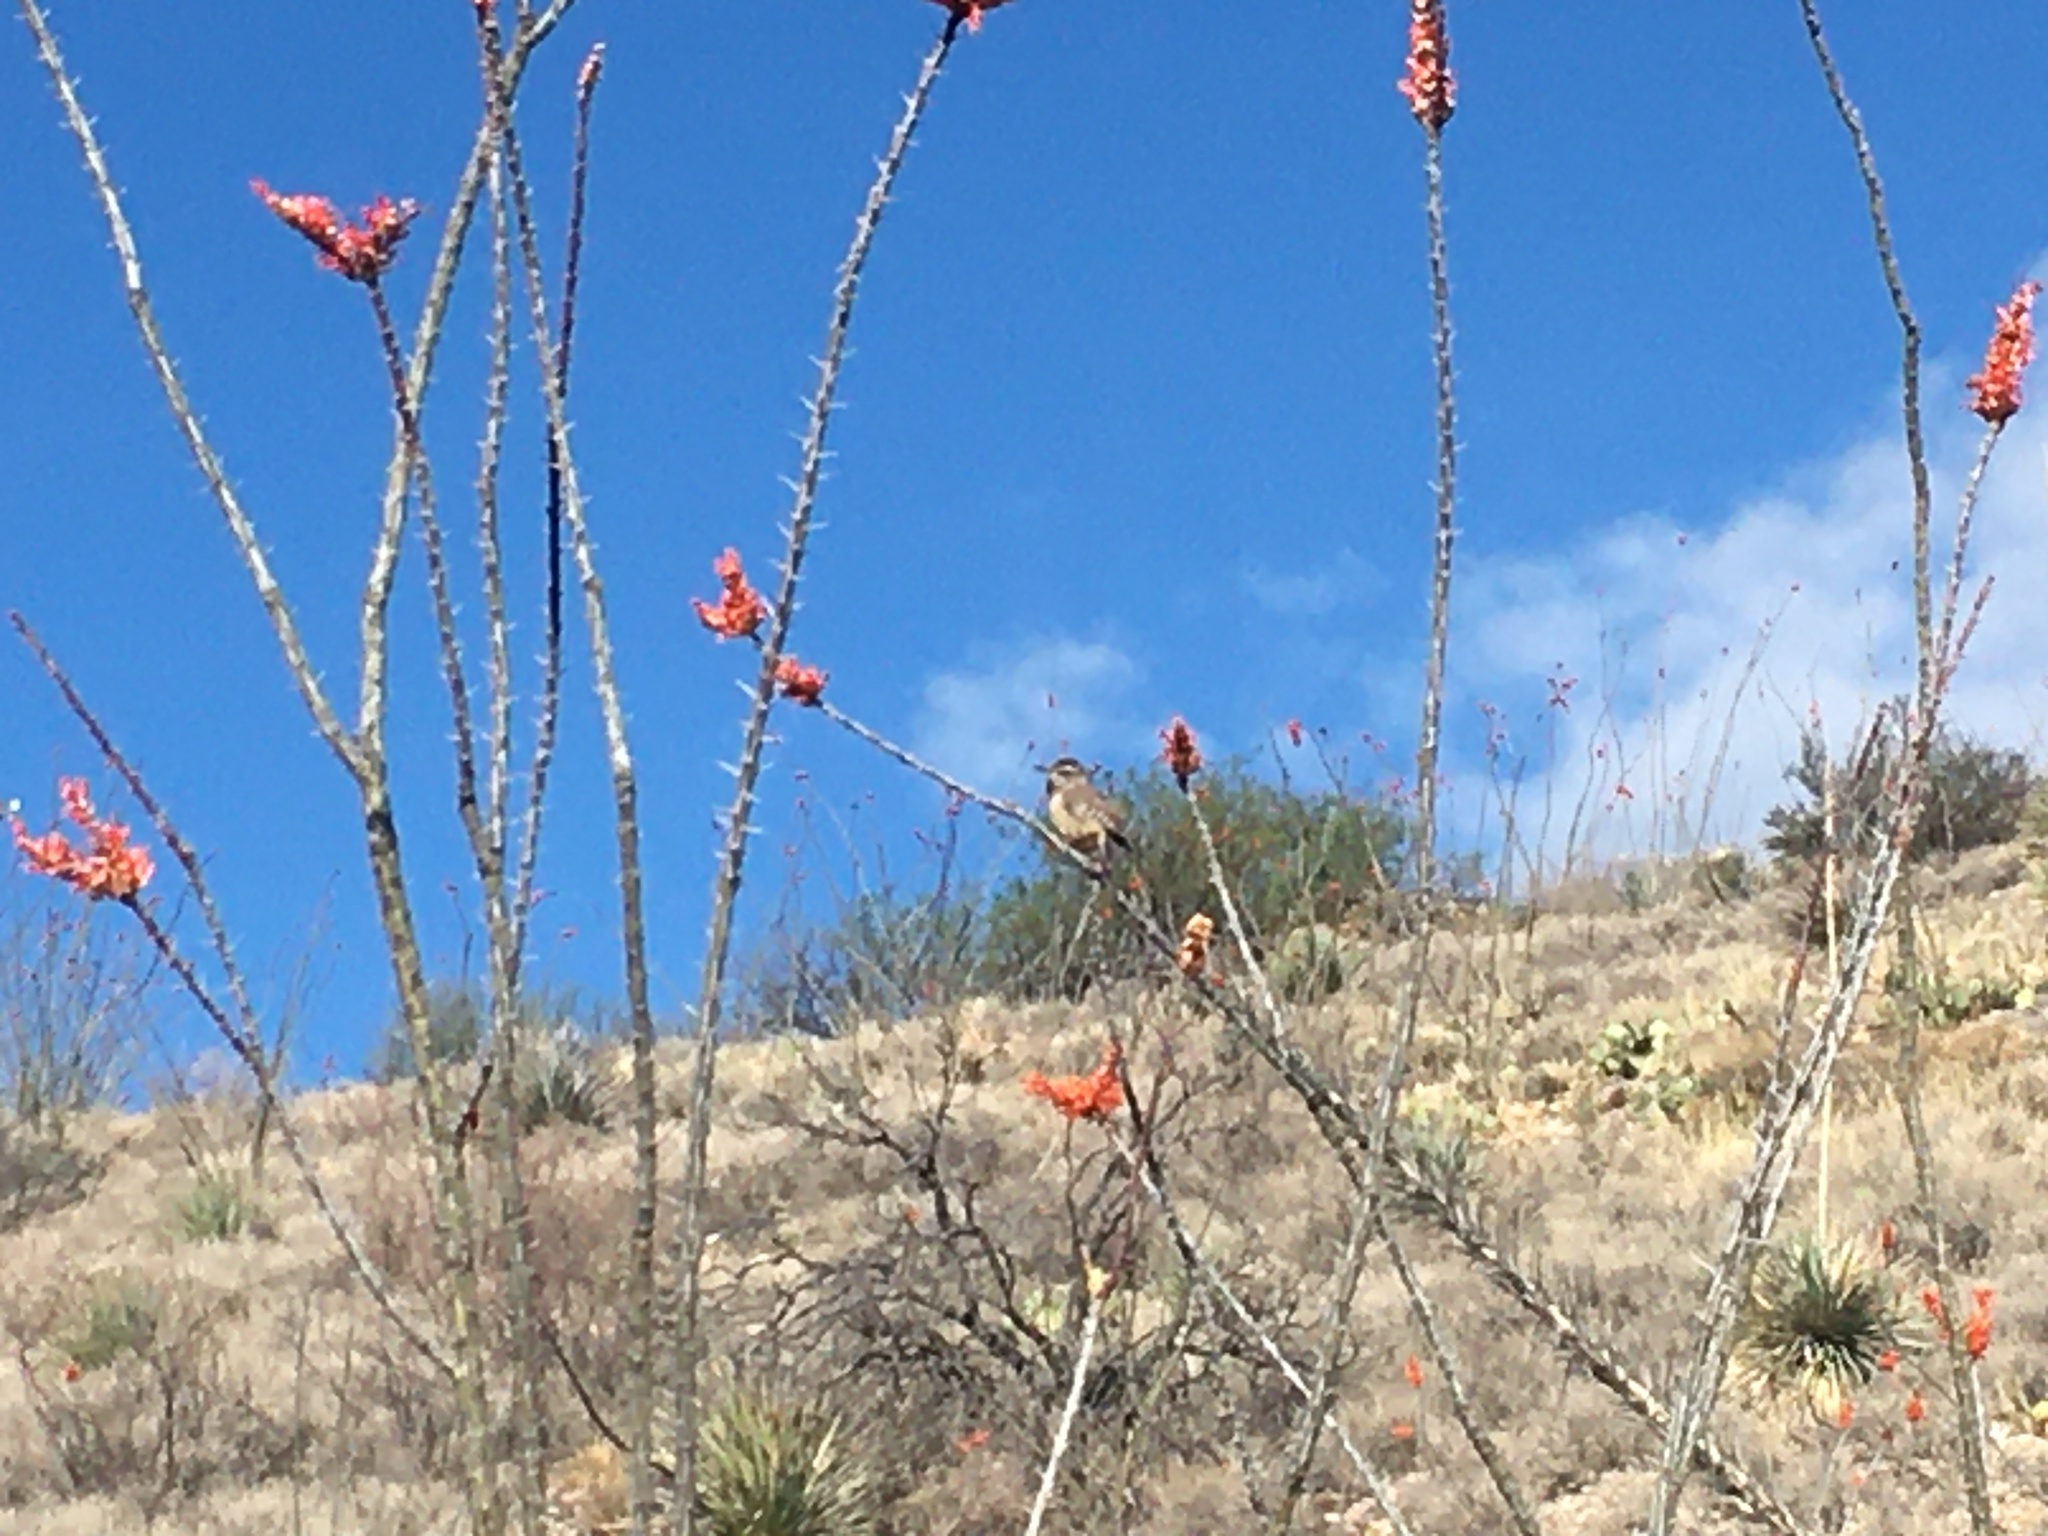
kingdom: Animalia
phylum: Chordata
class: Aves
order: Passeriformes
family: Troglodytidae
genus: Campylorhynchus
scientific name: Campylorhynchus brunneicapillus
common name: Cactus wren
